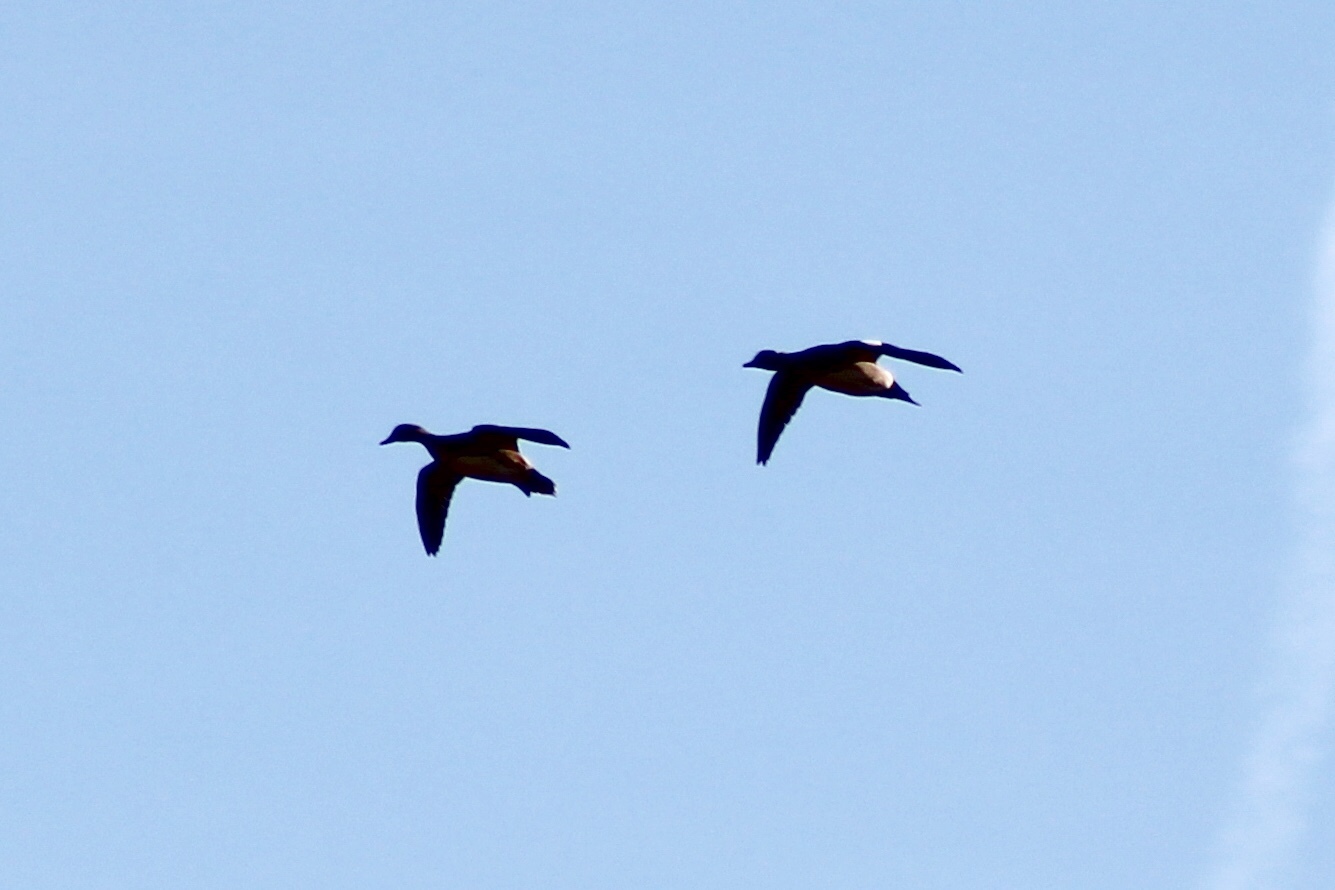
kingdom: Animalia
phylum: Chordata
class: Aves
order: Anseriformes
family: Anatidae
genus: Mareca
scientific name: Mareca americana
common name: American wigeon
